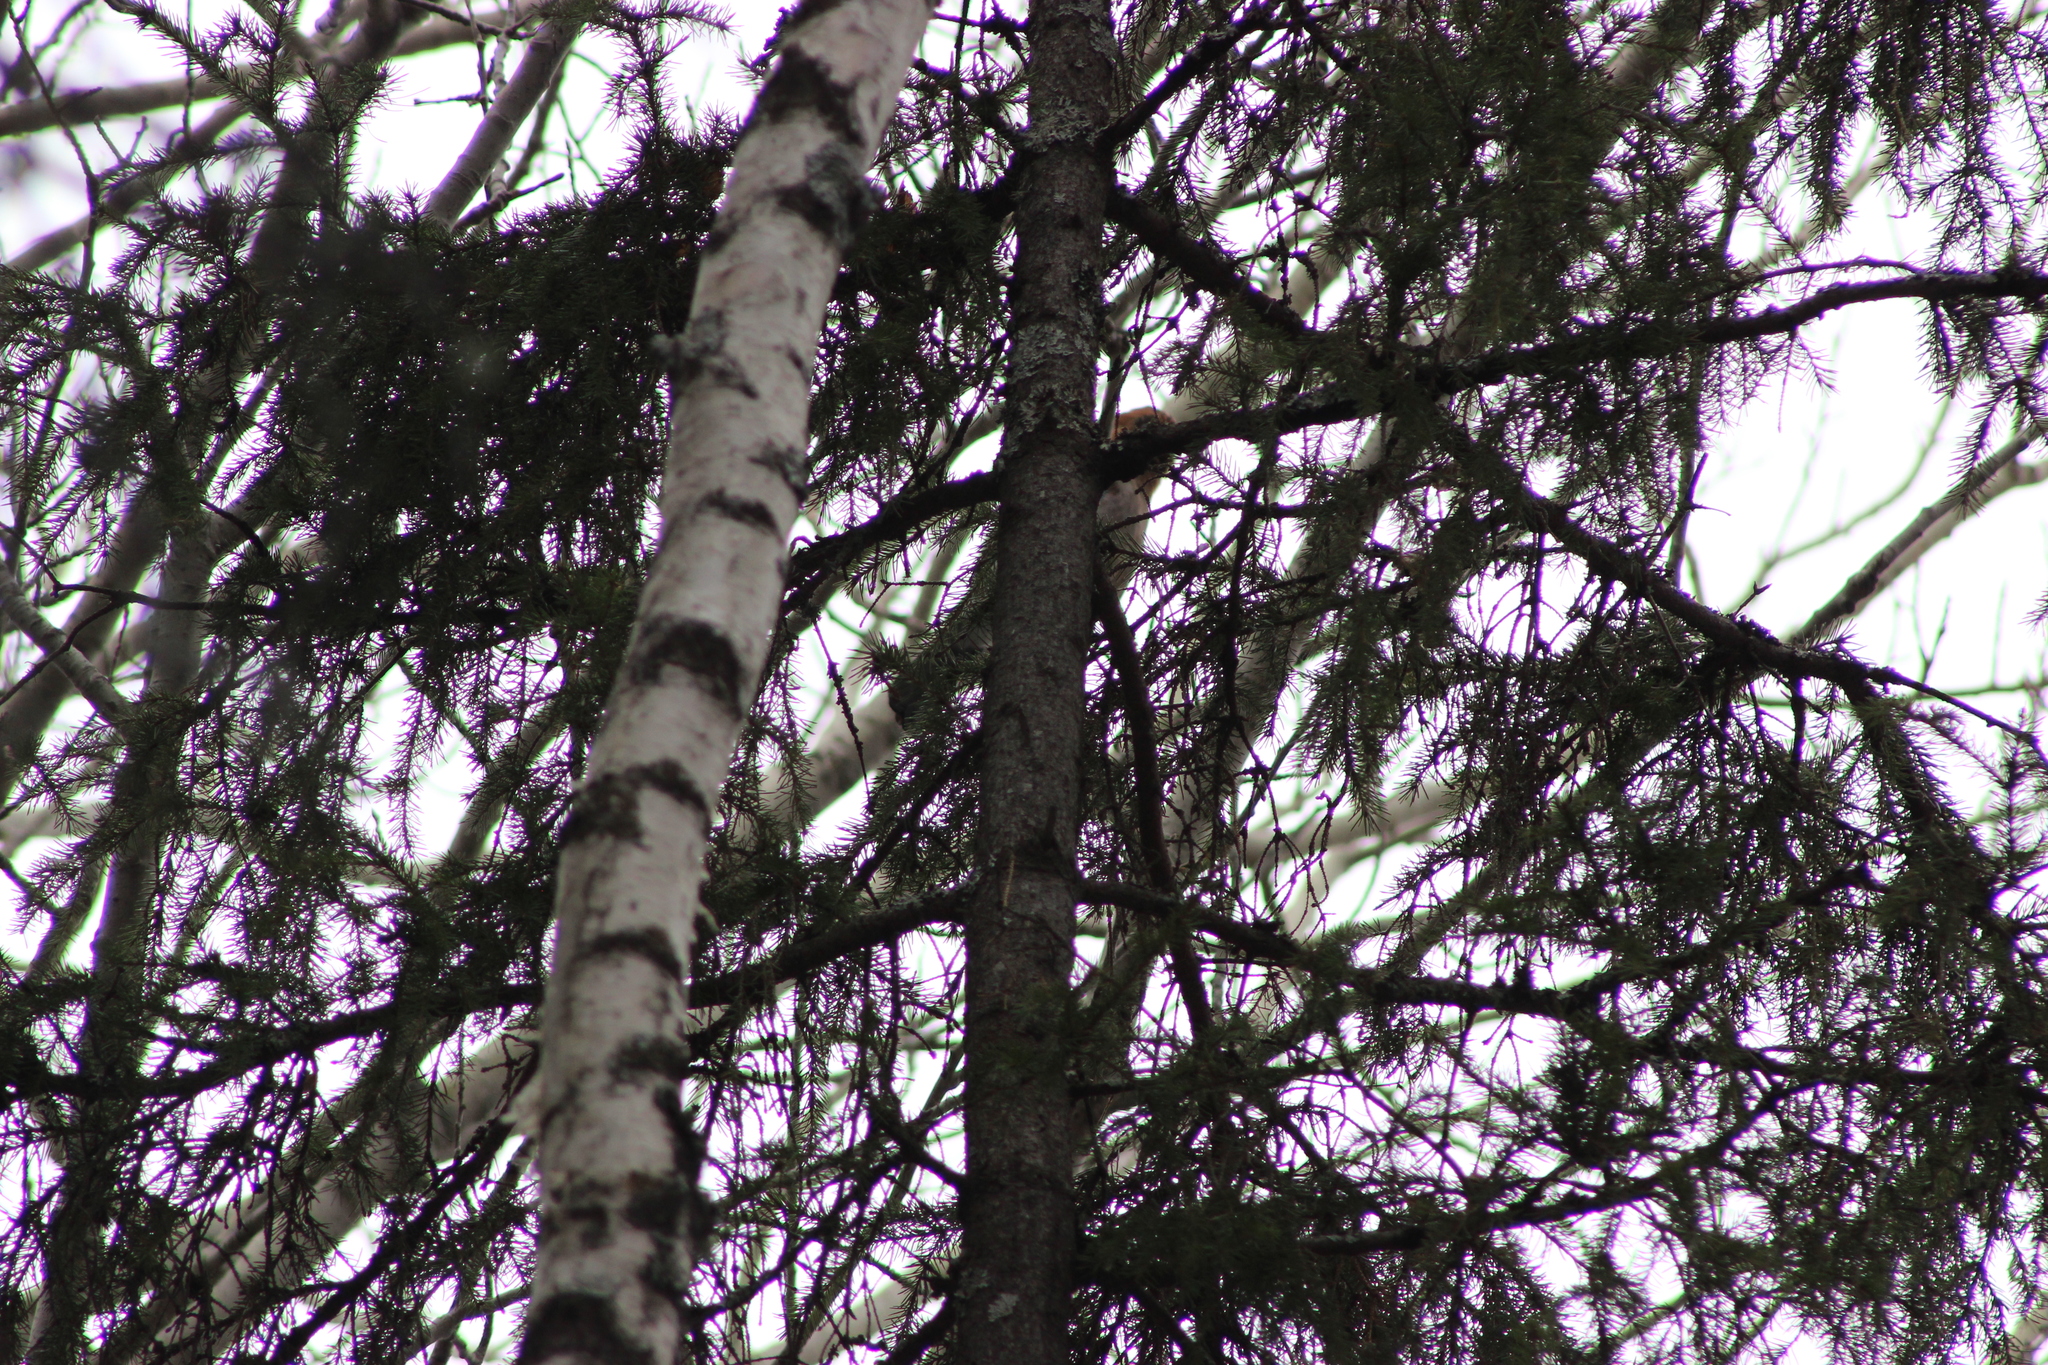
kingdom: Animalia
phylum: Chordata
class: Aves
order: Passeriformes
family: Corvidae
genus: Garrulus
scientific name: Garrulus glandarius
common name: Eurasian jay
